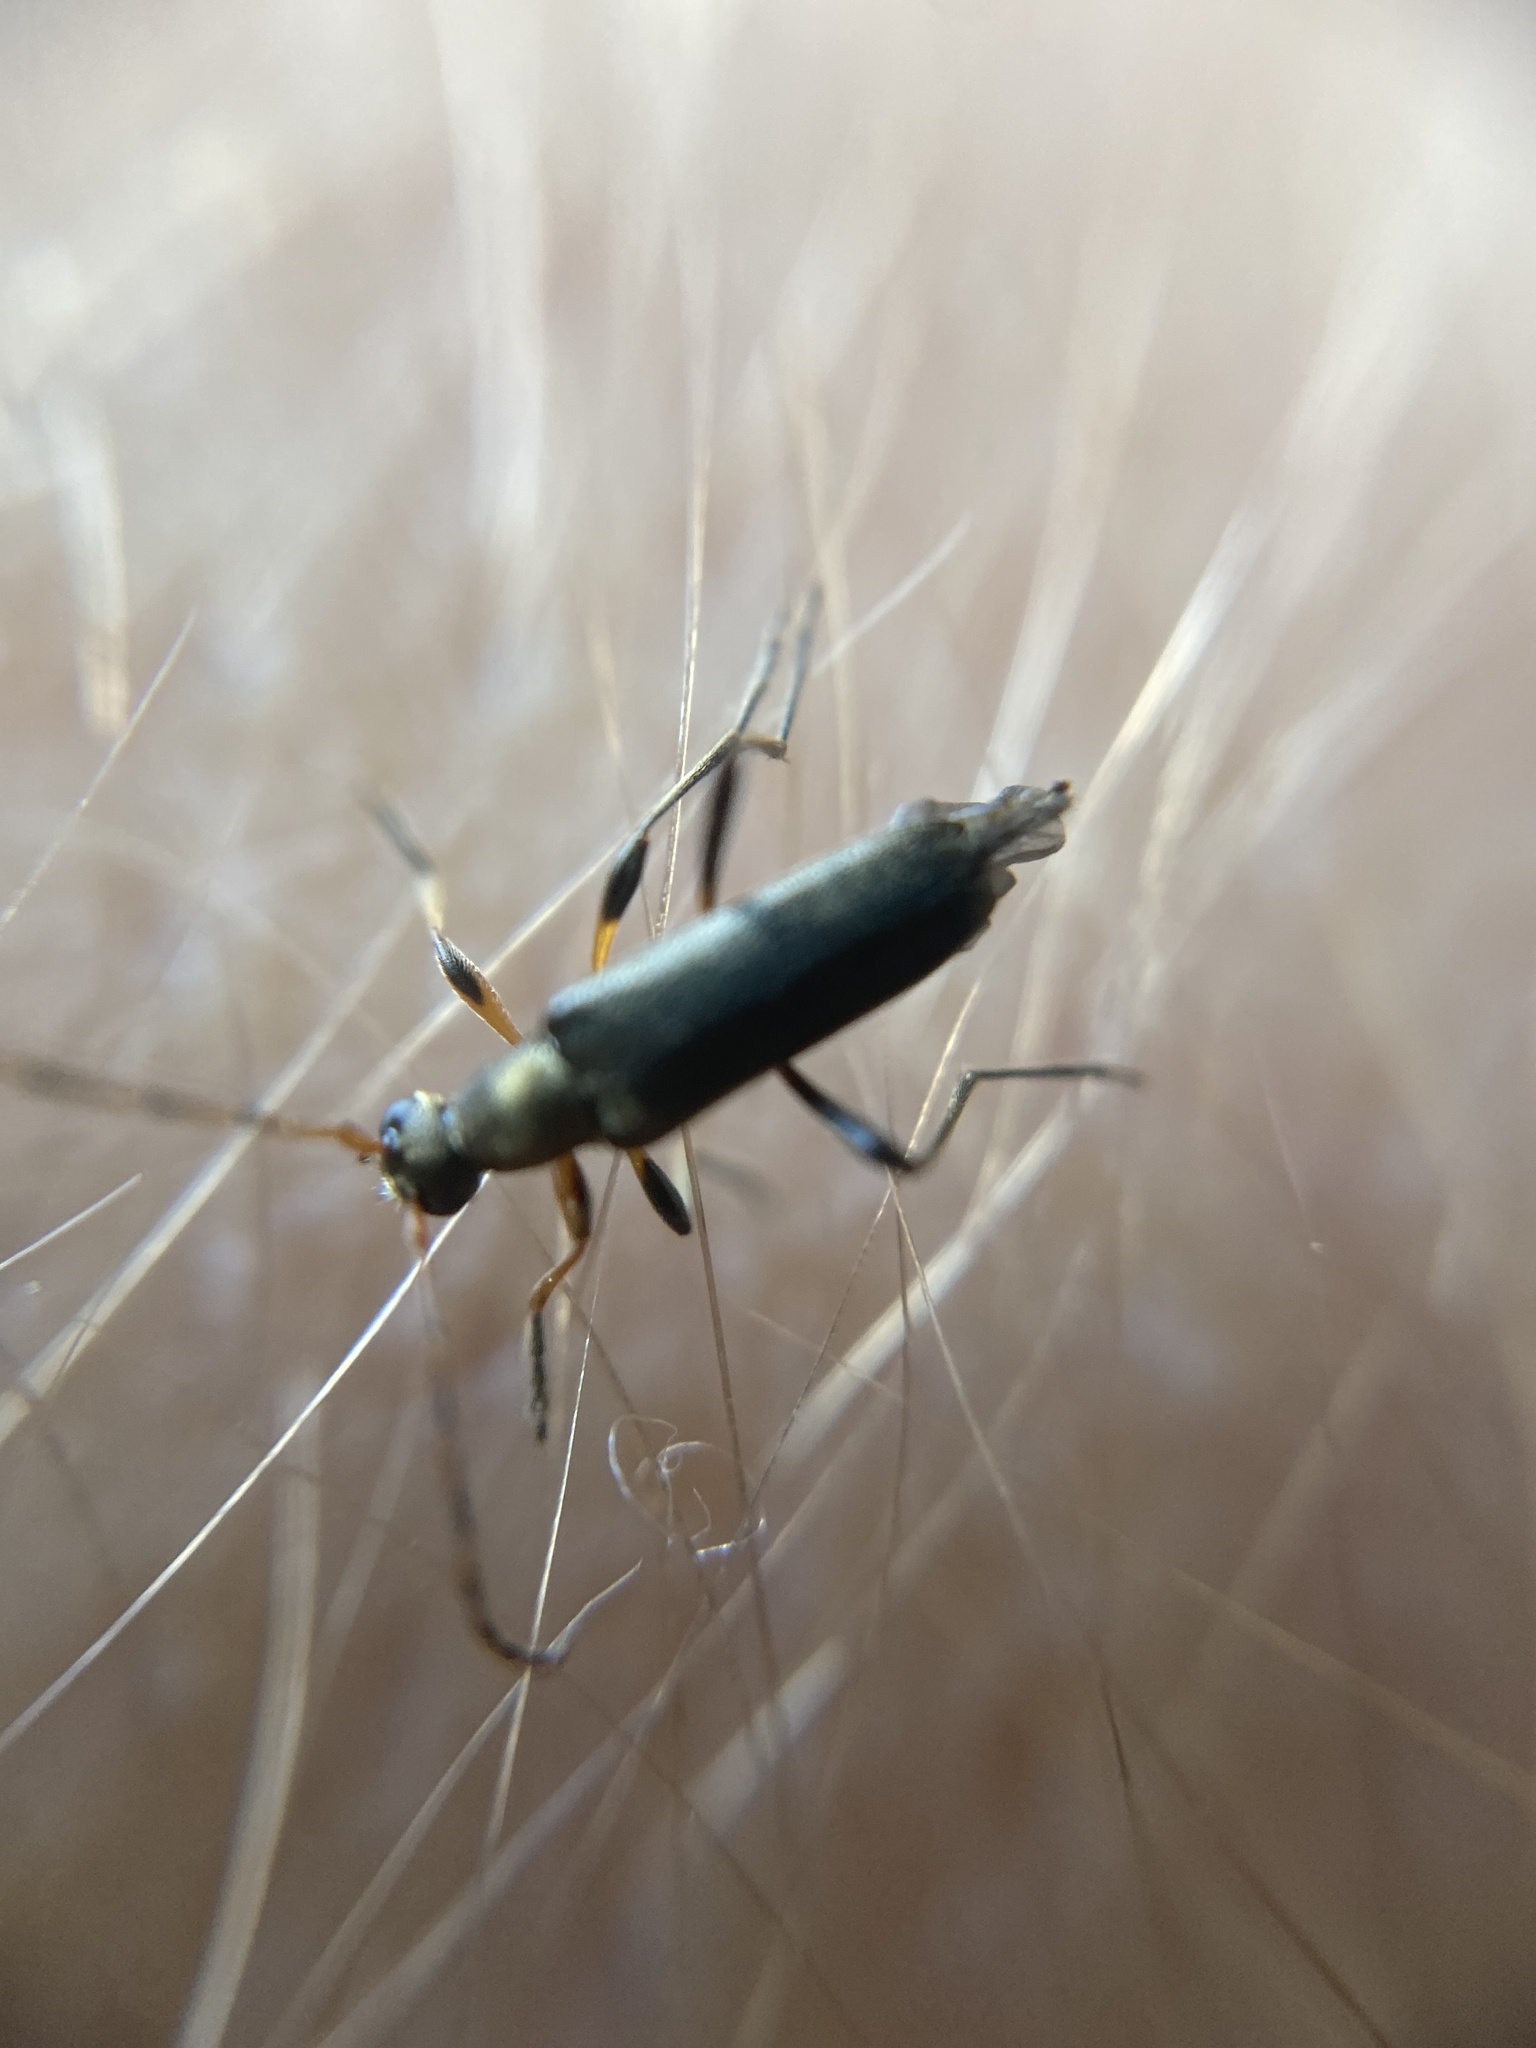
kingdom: Animalia
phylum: Arthropoda
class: Insecta
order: Coleoptera
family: Cerambycidae
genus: Grammoptera
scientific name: Grammoptera ruficornis
